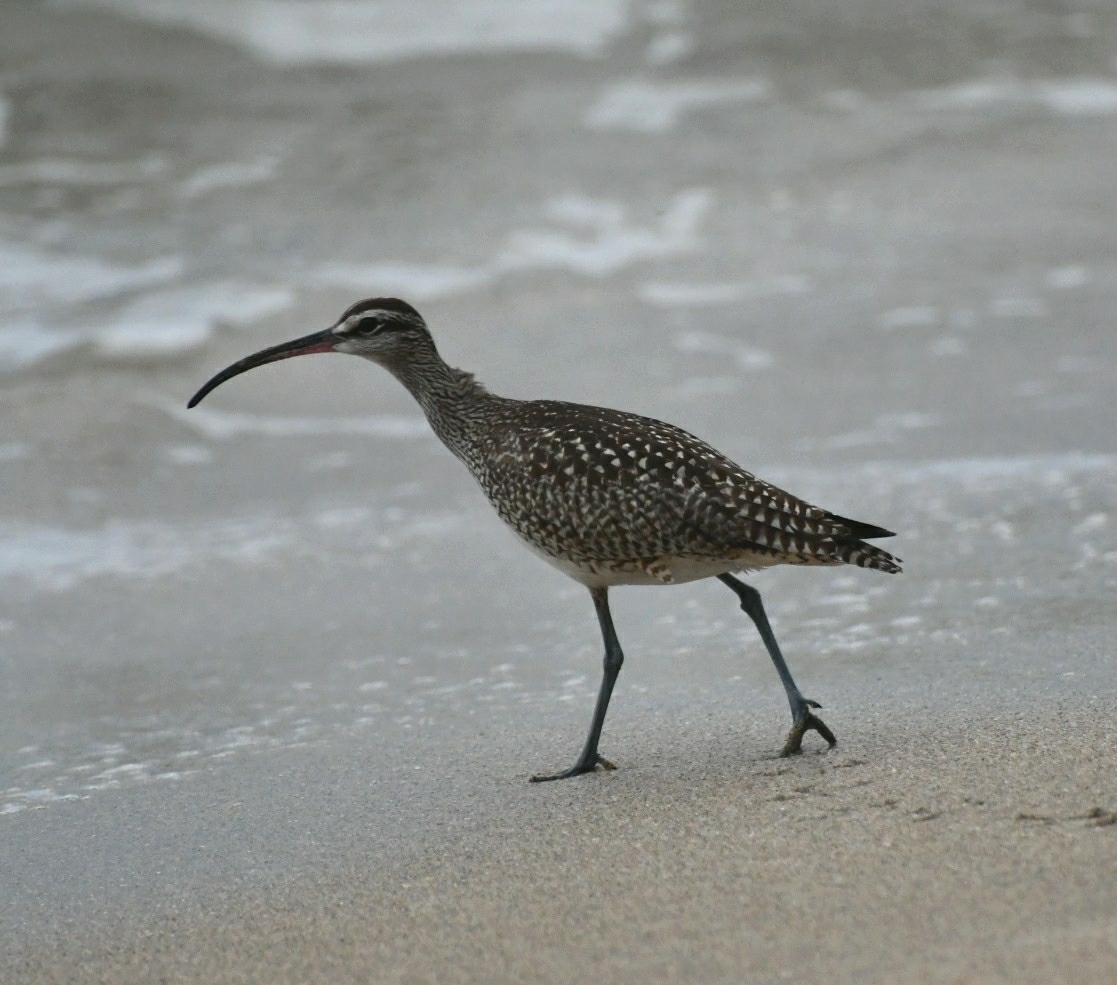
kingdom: Animalia
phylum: Chordata
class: Aves
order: Charadriiformes
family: Scolopacidae
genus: Numenius
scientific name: Numenius phaeopus
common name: Whimbrel
